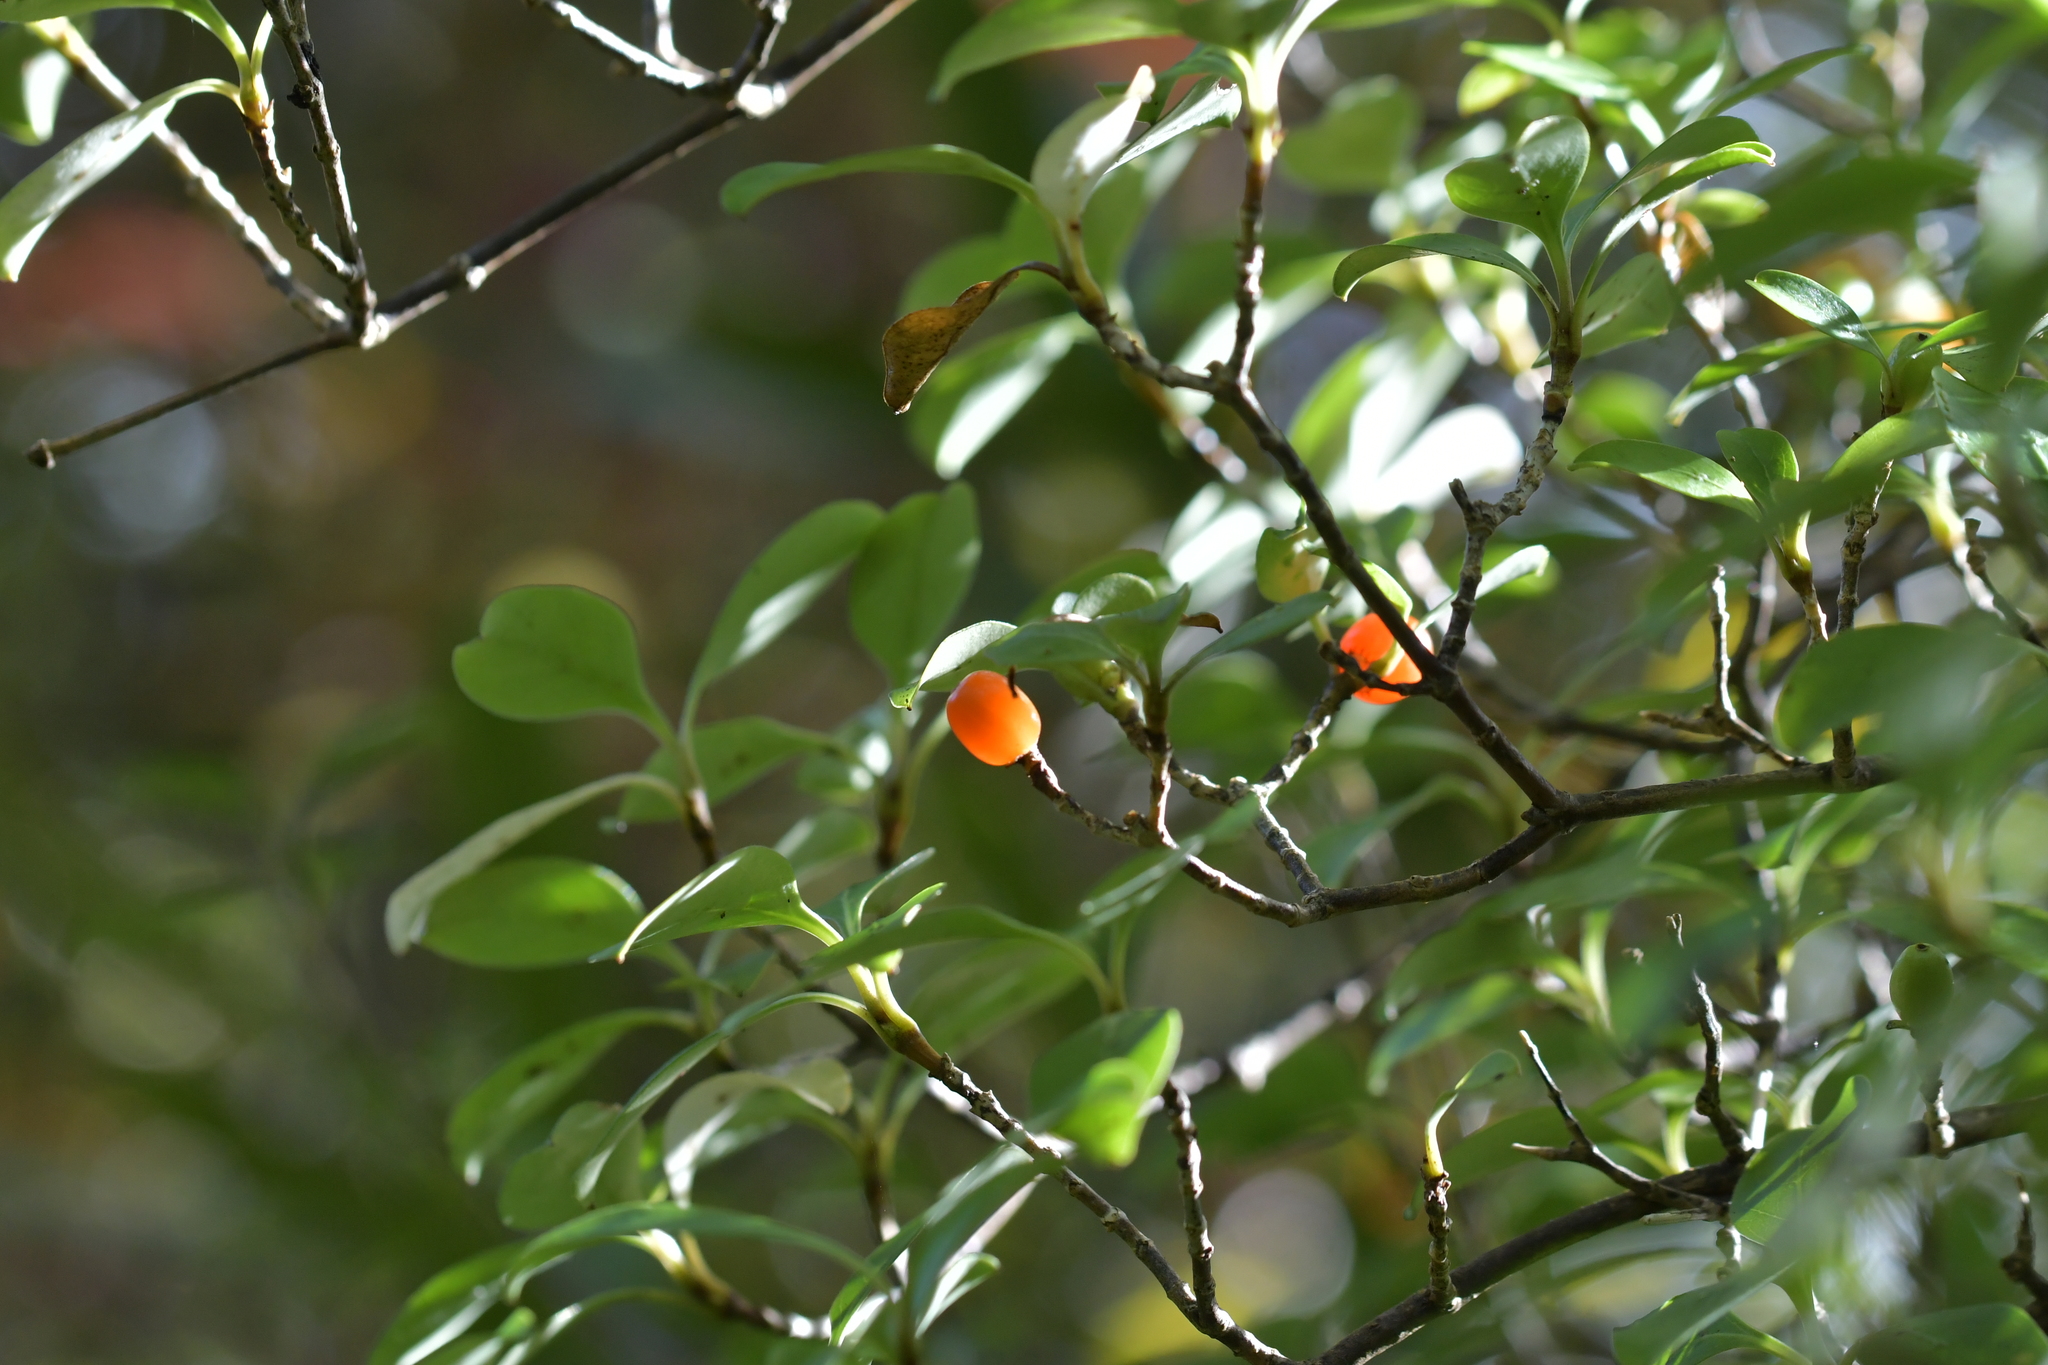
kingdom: Plantae
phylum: Tracheophyta
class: Magnoliopsida
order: Gentianales
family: Rubiaceae
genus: Coprosma
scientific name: Coprosma foetidissima
